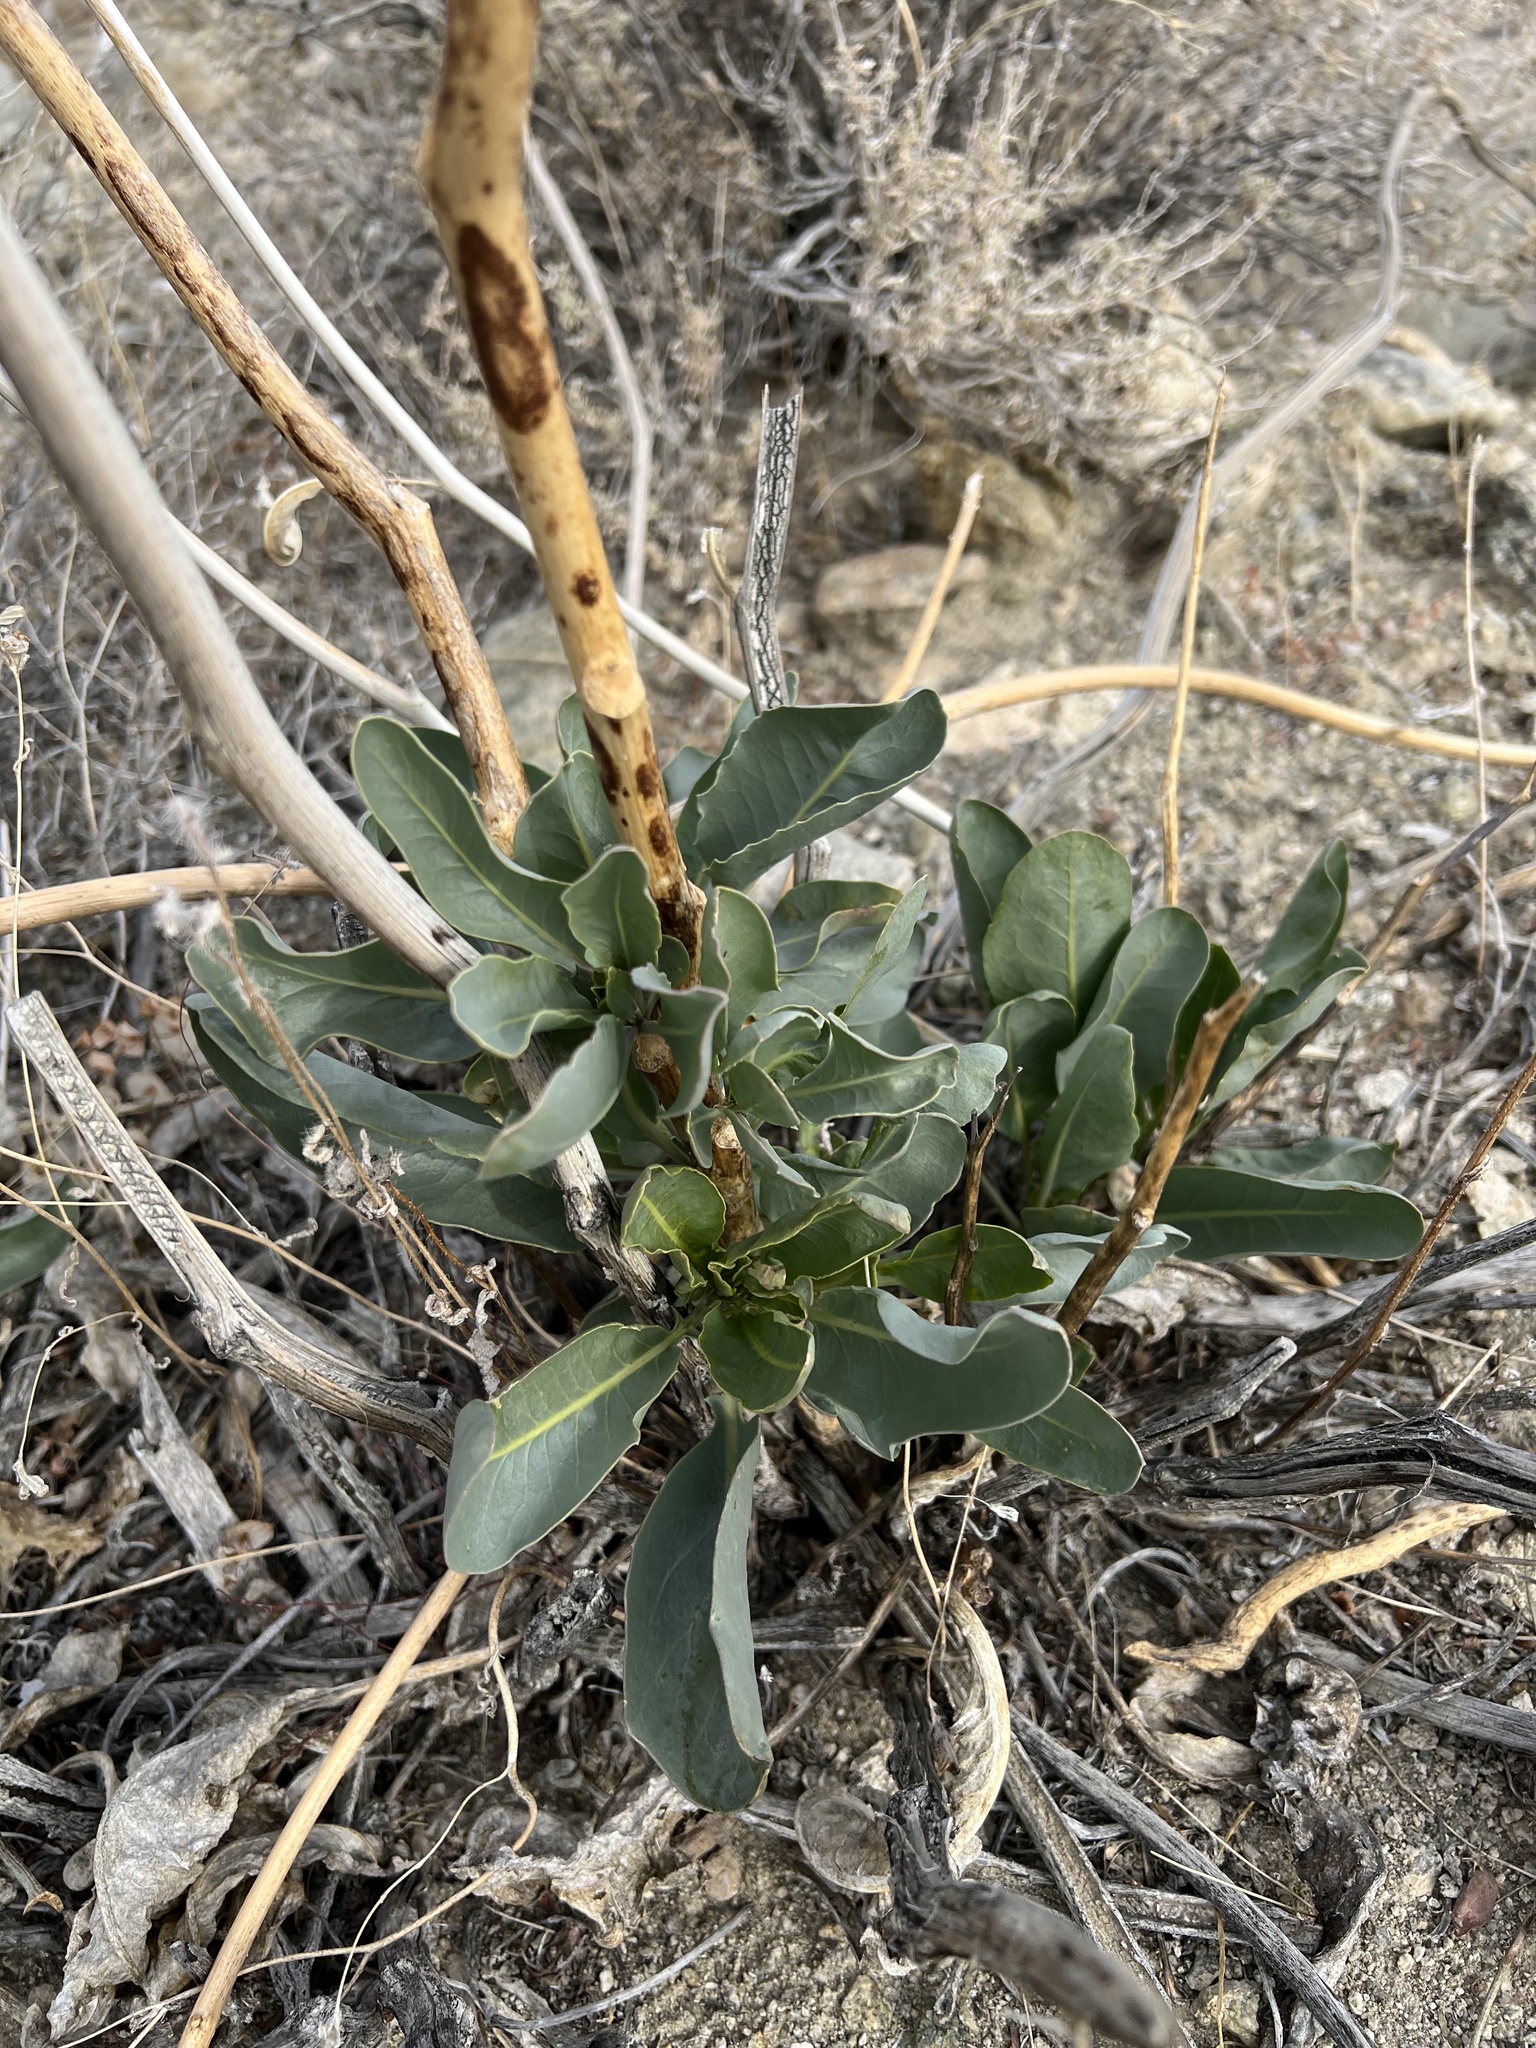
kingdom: Plantae
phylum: Tracheophyta
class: Magnoliopsida
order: Brassicales
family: Brassicaceae
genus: Stanleya
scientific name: Stanleya elata
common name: Panamint prince's plume
